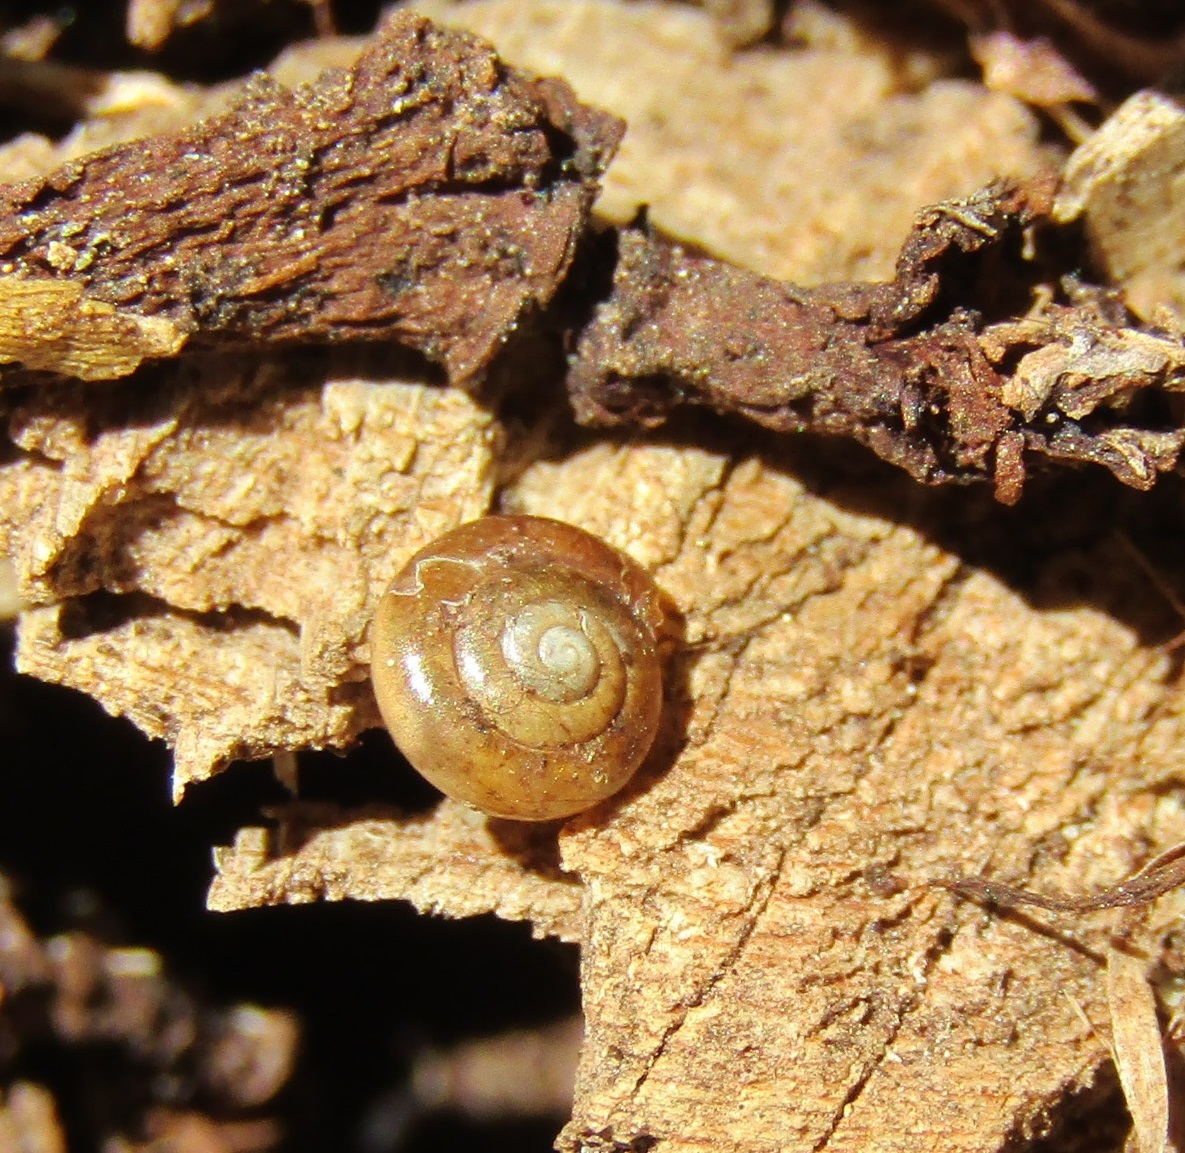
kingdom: Animalia
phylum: Mollusca
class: Gastropoda
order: Stylommatophora
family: Oxychilidae
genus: Oxychilus
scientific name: Oxychilus
